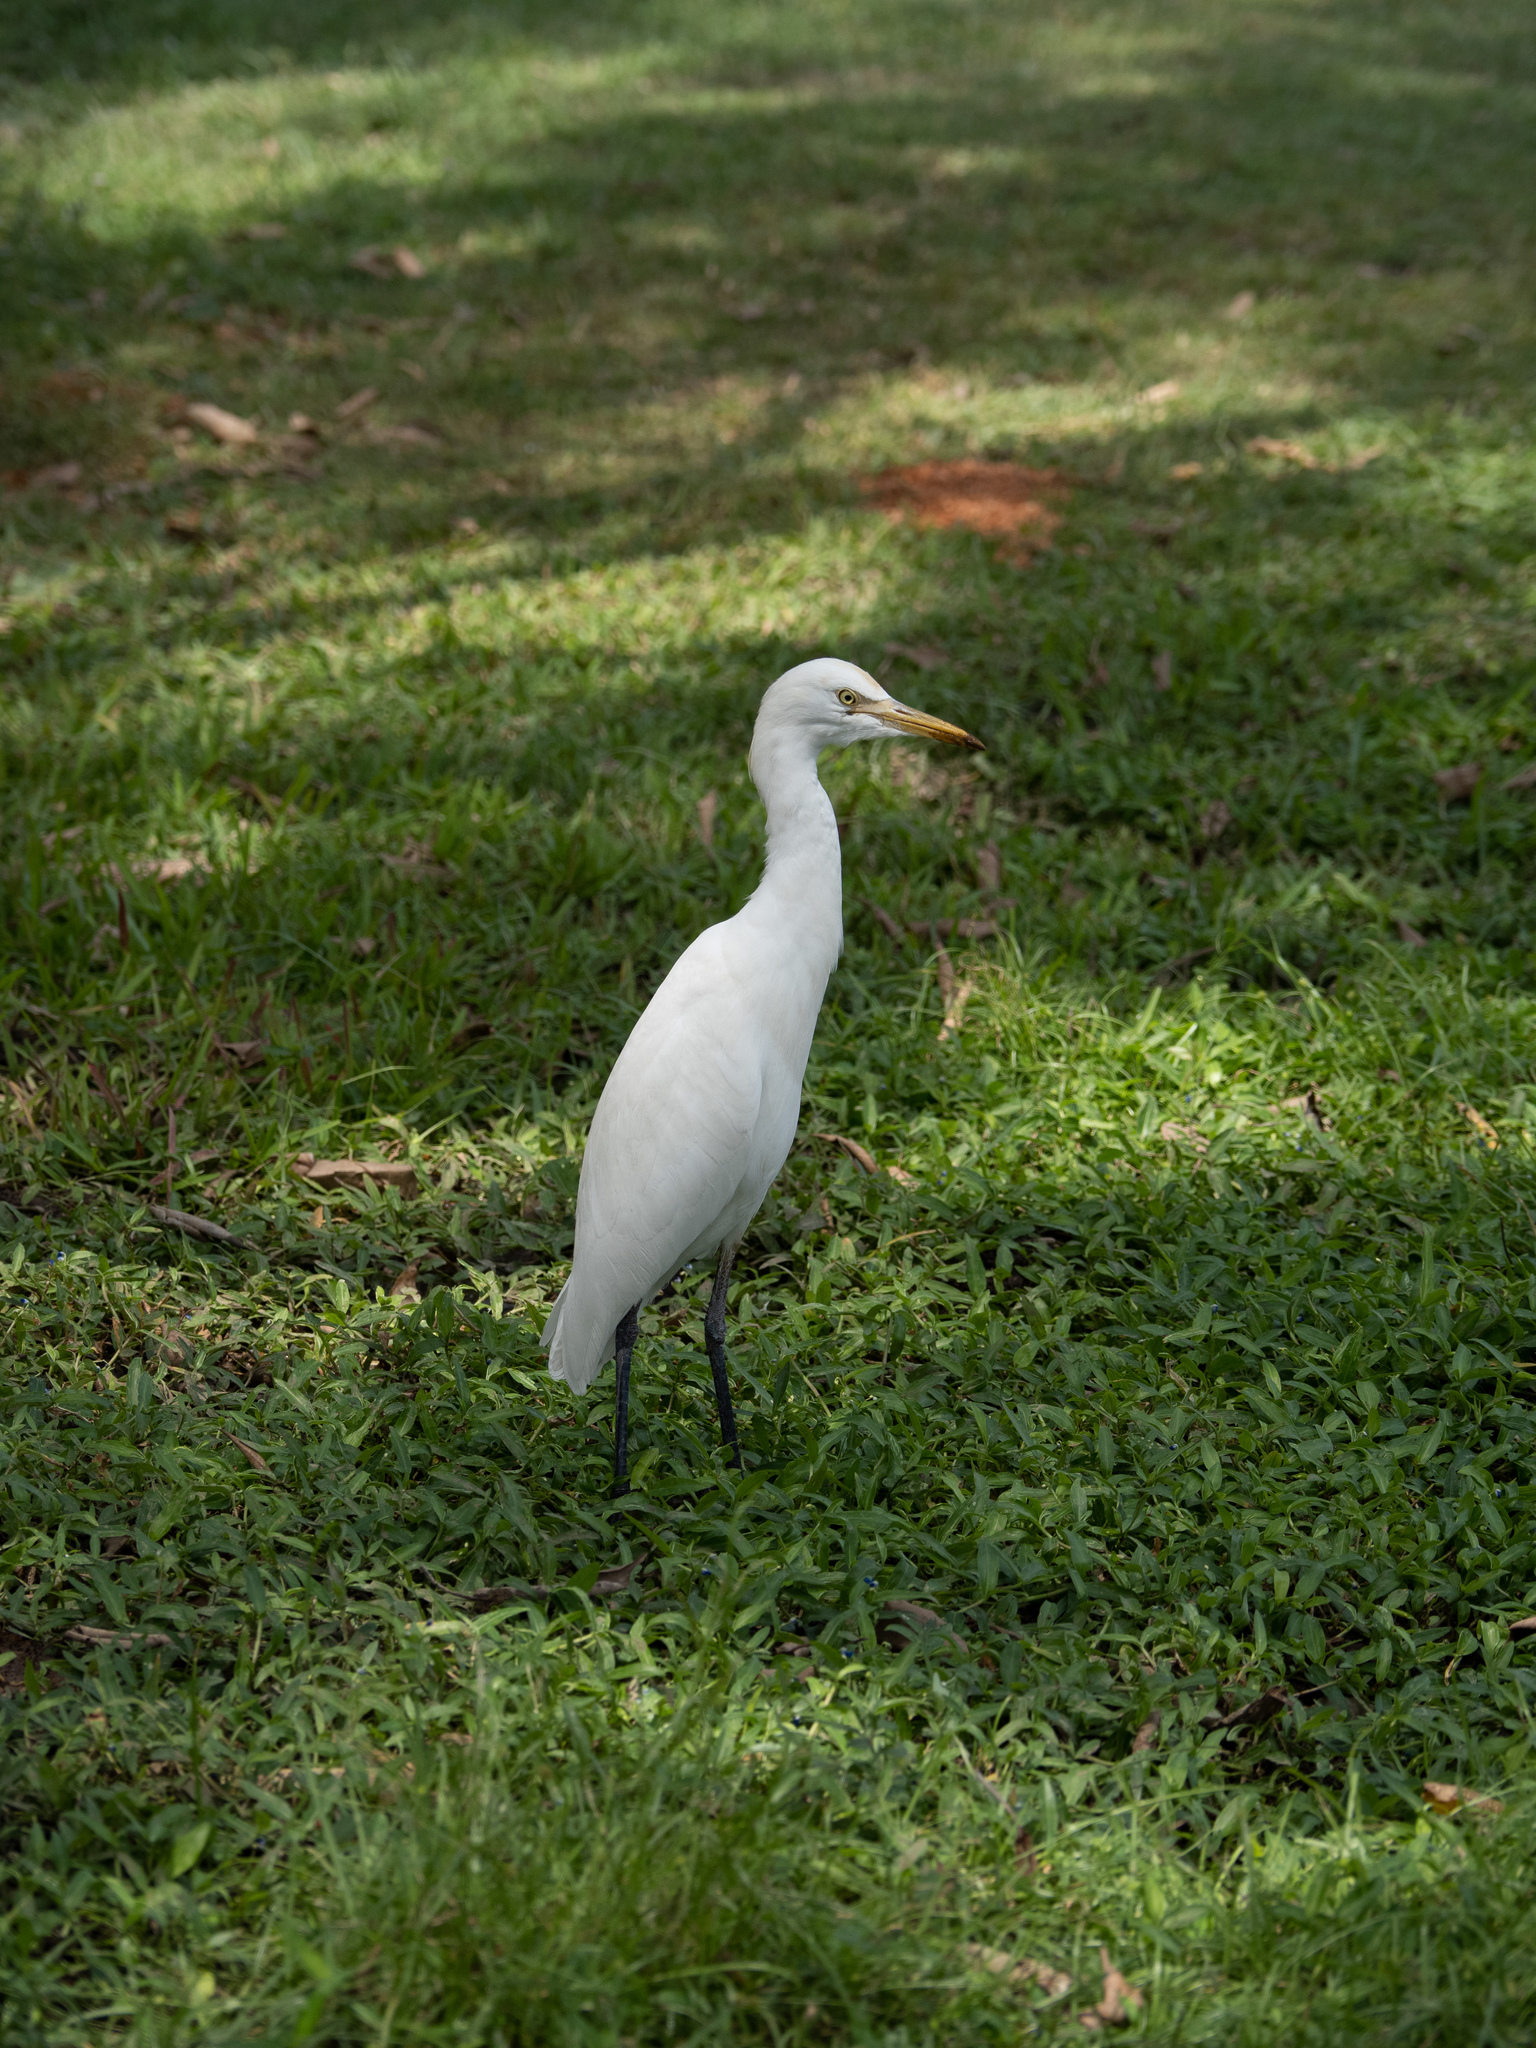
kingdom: Animalia
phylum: Chordata
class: Aves
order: Pelecaniformes
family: Ardeidae
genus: Bubulcus
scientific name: Bubulcus coromandus
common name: Eastern cattle egret
